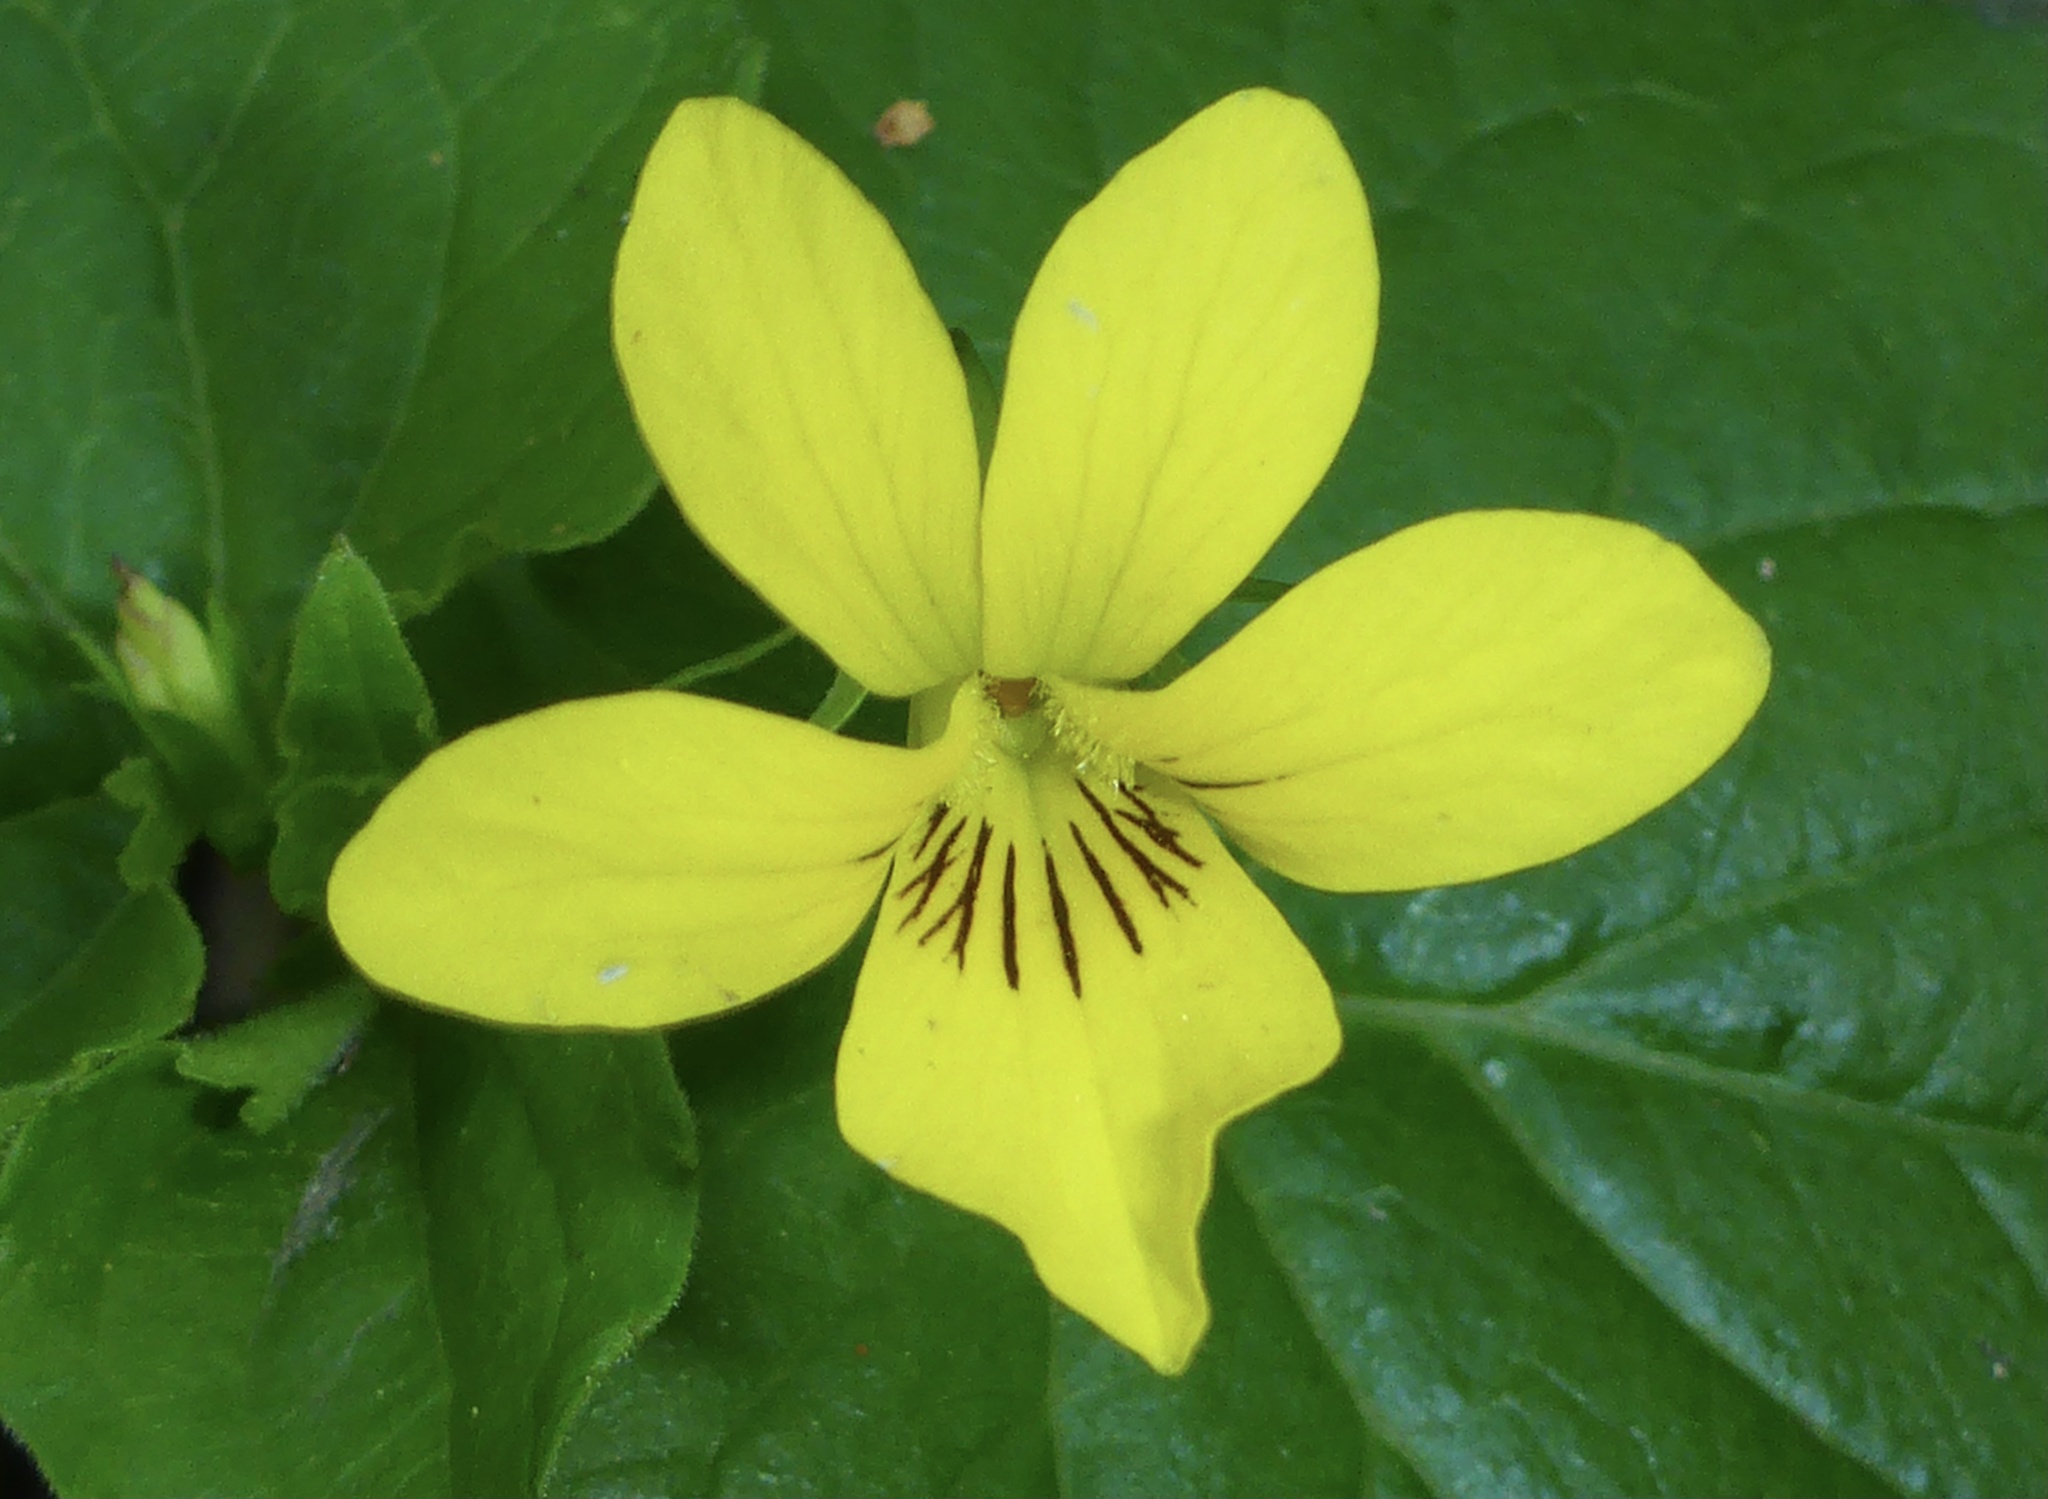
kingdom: Plantae
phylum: Tracheophyta
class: Magnoliopsida
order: Malpighiales
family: Violaceae
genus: Viola
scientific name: Viola glabella
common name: Stream violet
